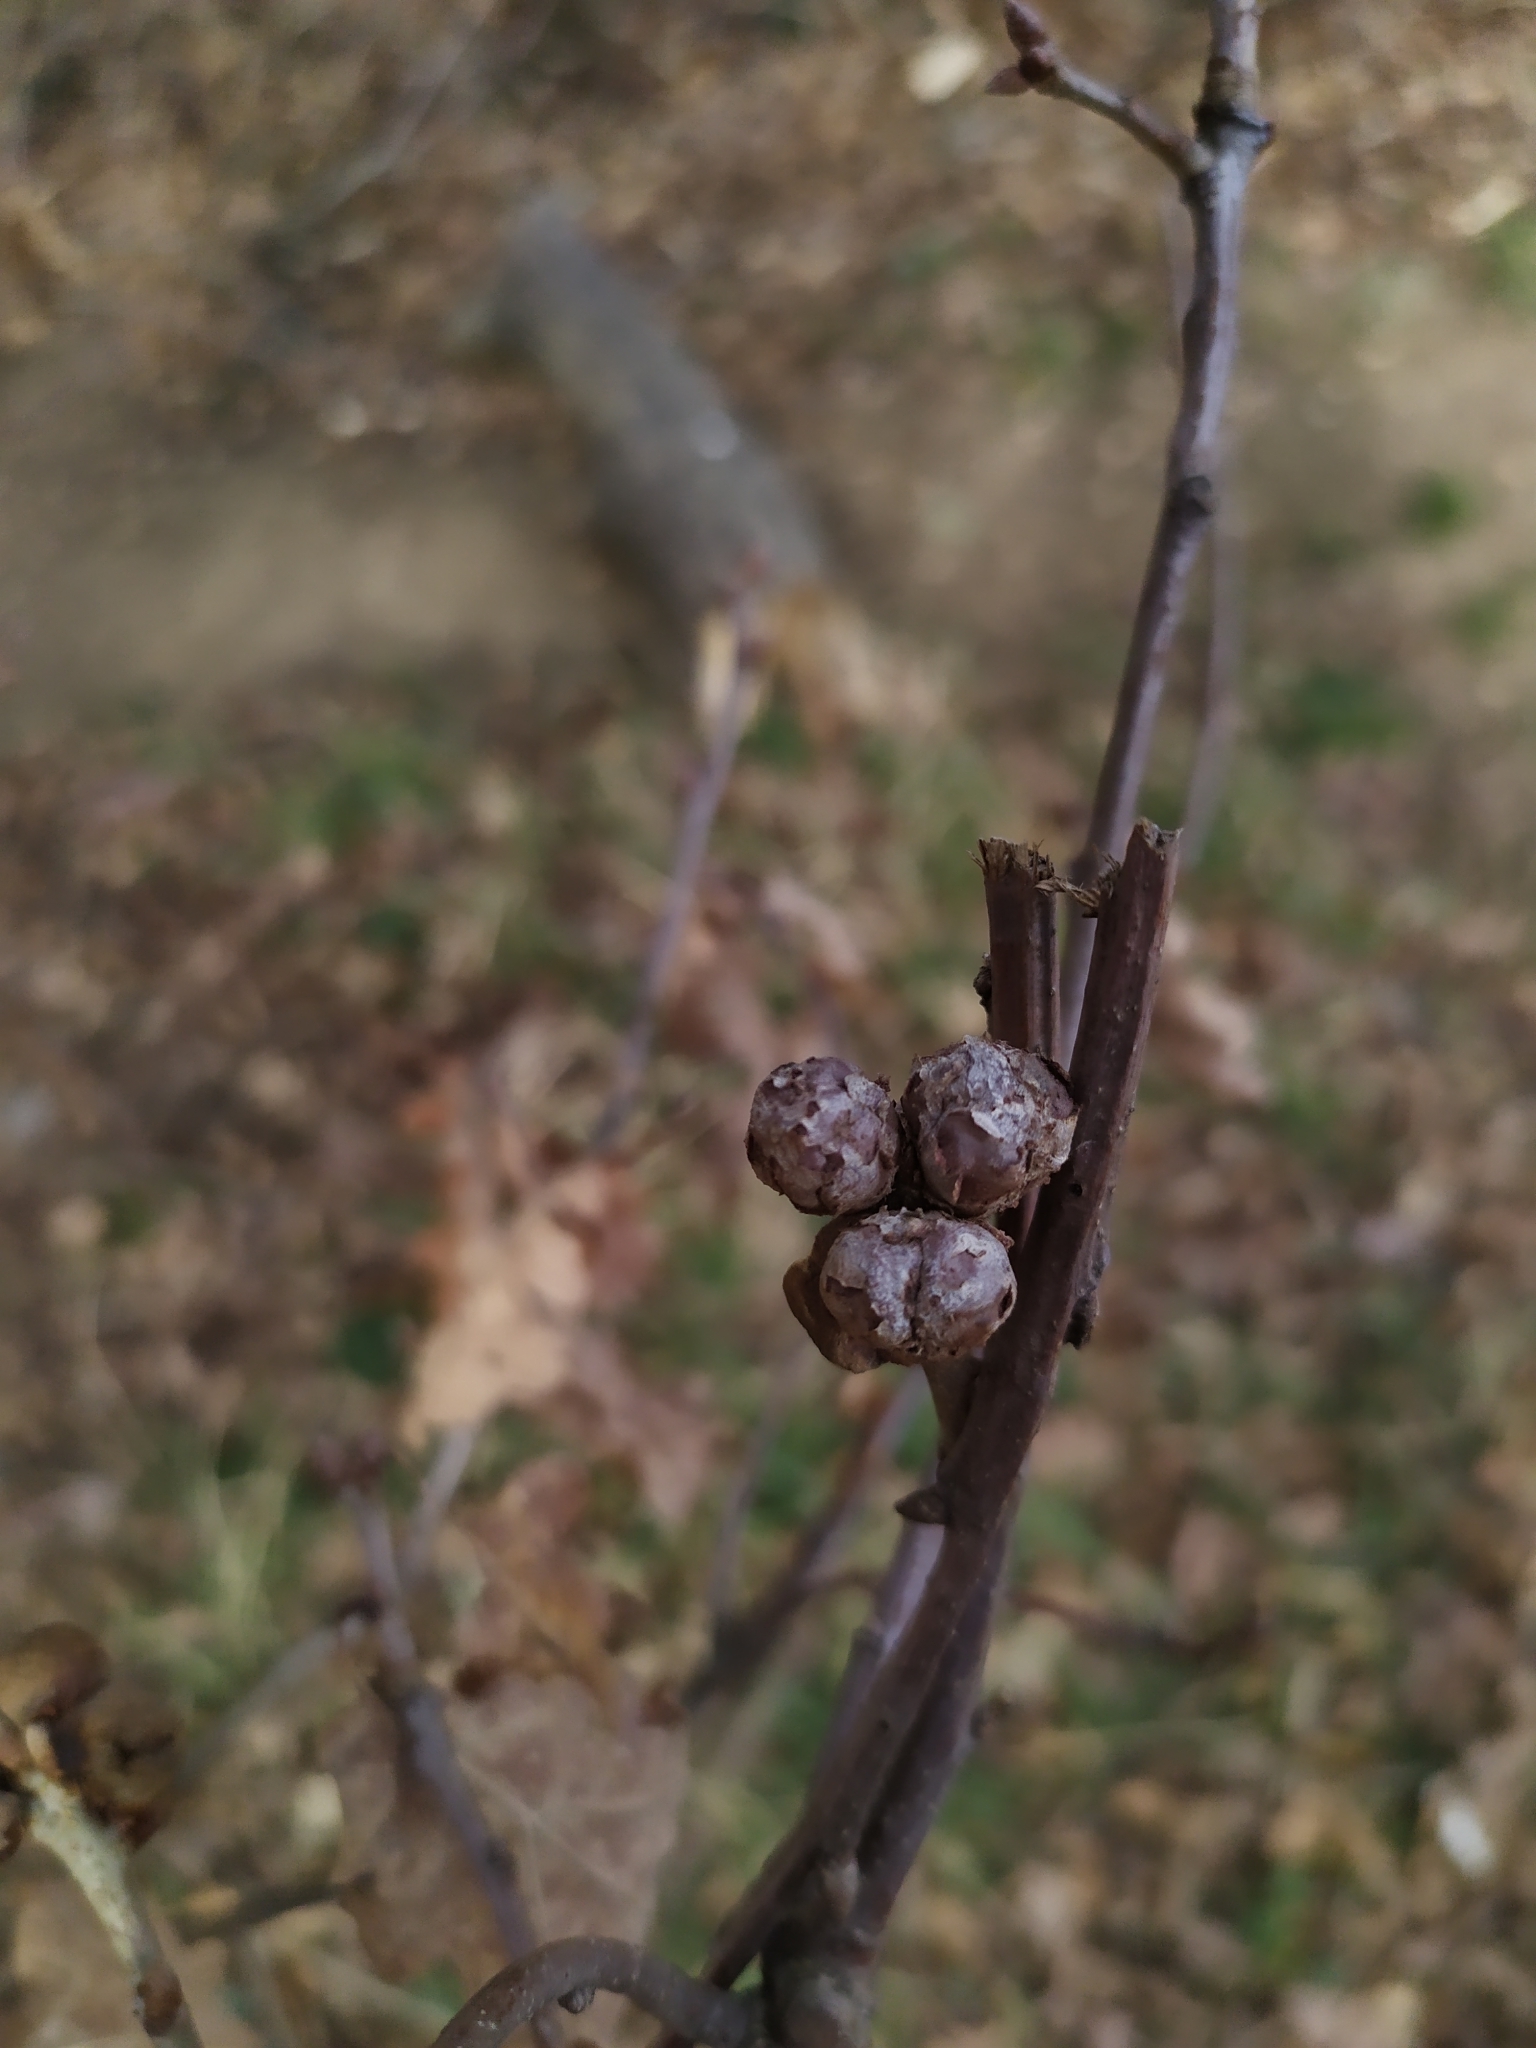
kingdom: Animalia
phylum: Arthropoda
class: Insecta
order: Hymenoptera
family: Cynipidae
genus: Andricus
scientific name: Andricus lignicolus
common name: Cola-nut gall
